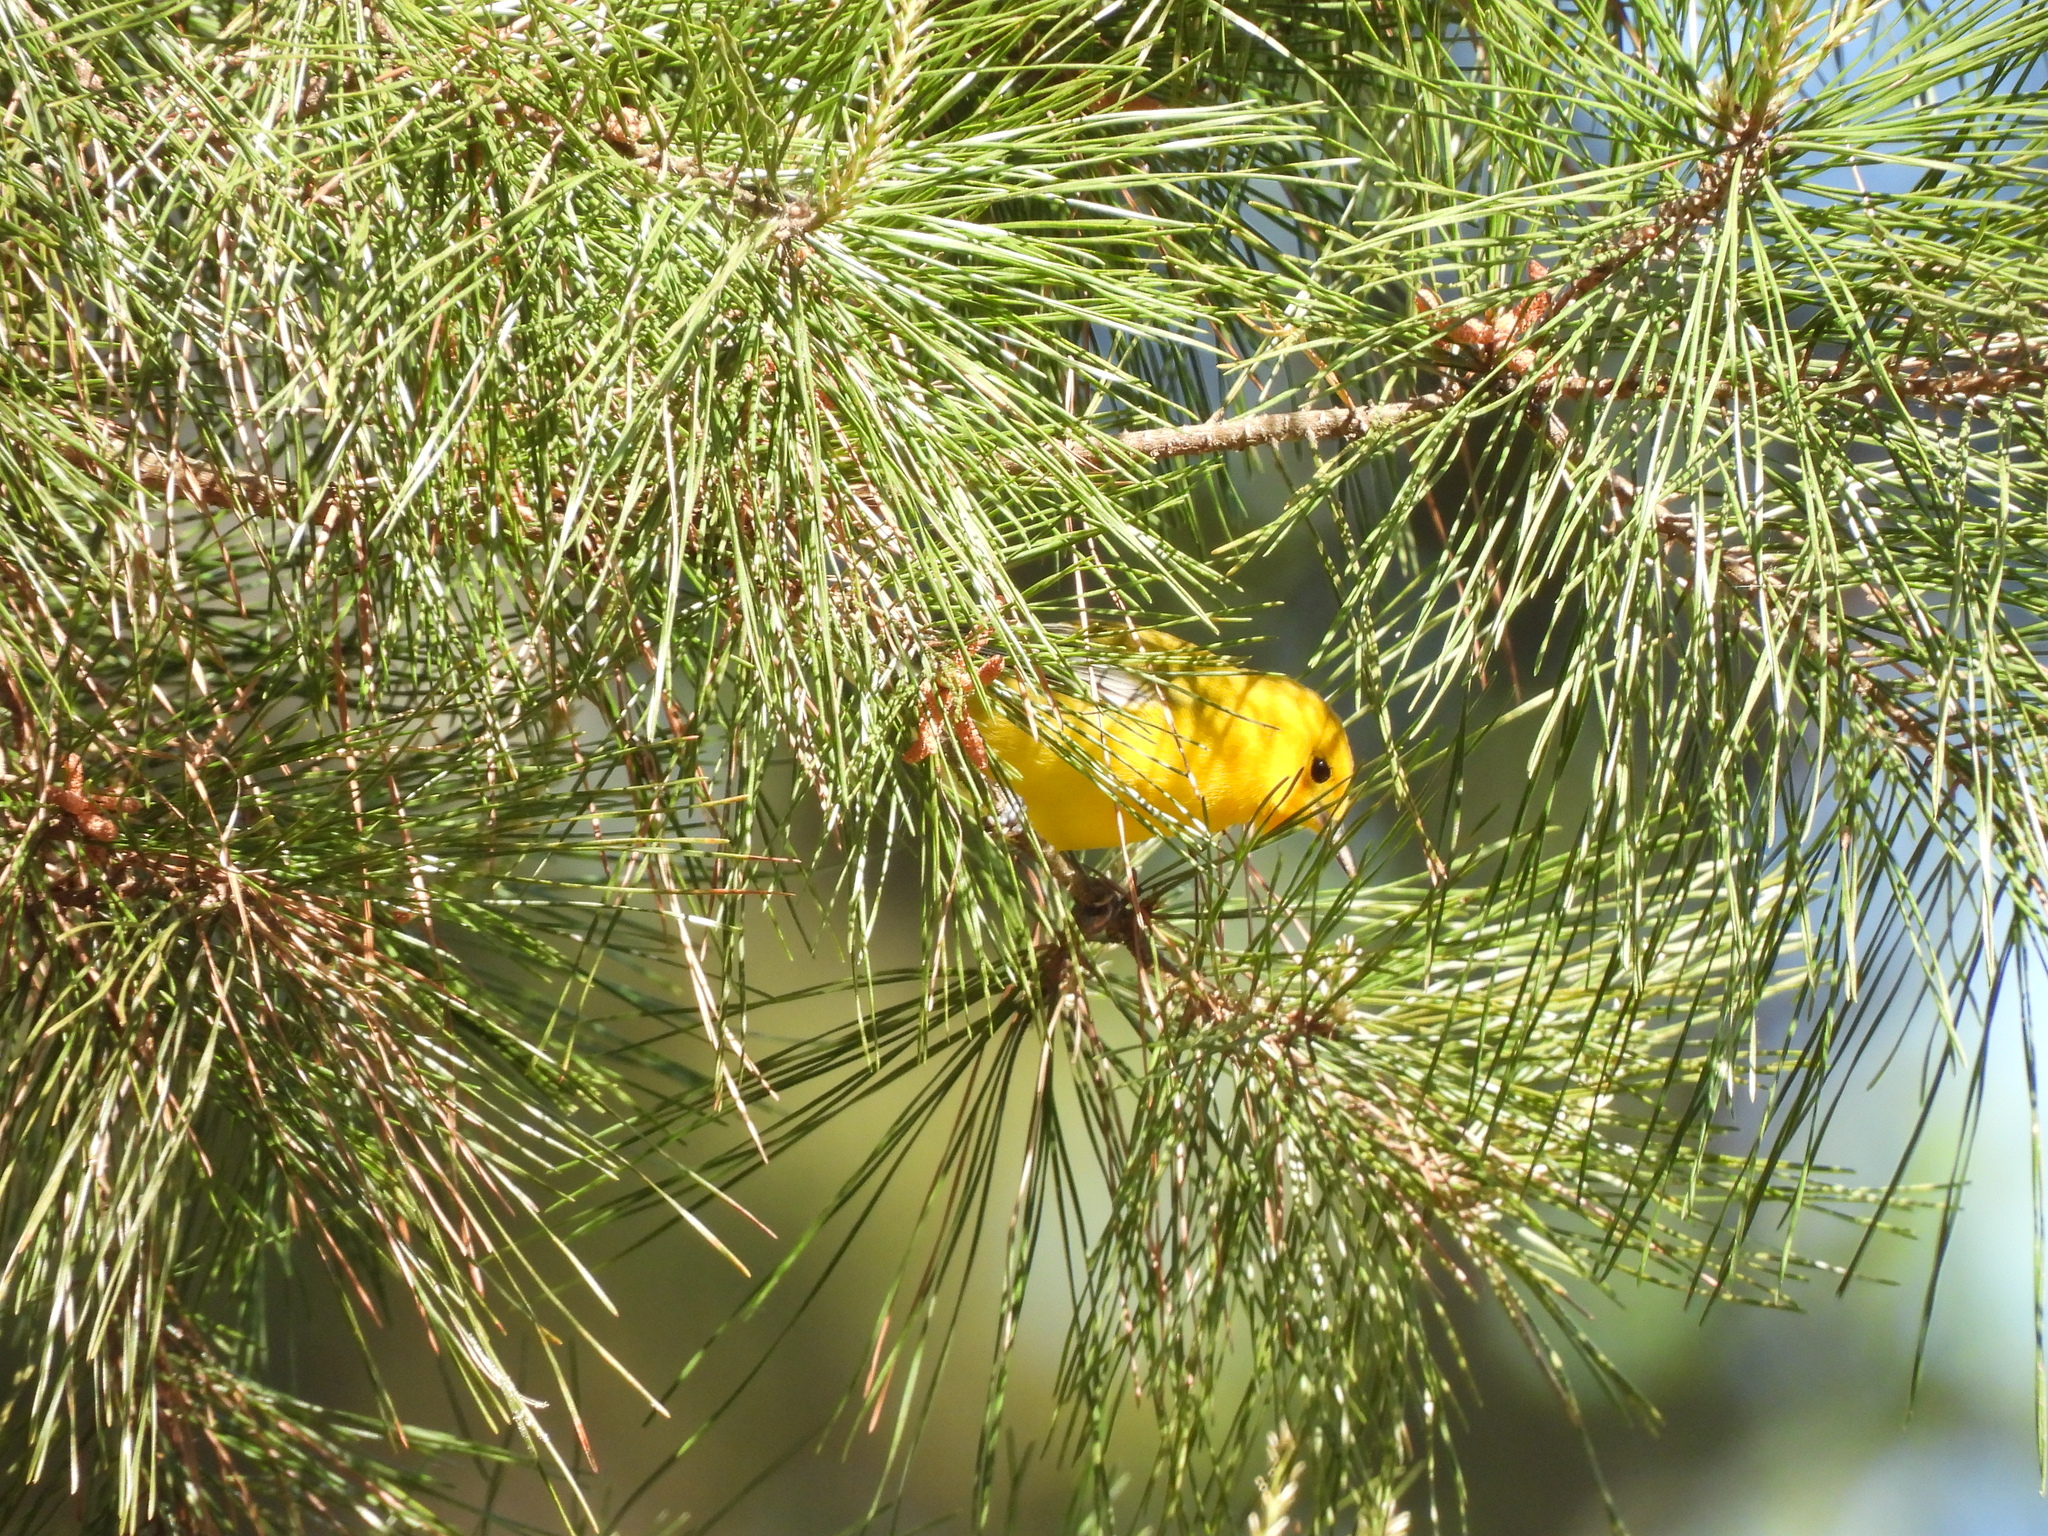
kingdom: Animalia
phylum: Chordata
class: Aves
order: Passeriformes
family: Parulidae
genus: Protonotaria
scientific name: Protonotaria citrea
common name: Prothonotary warbler
